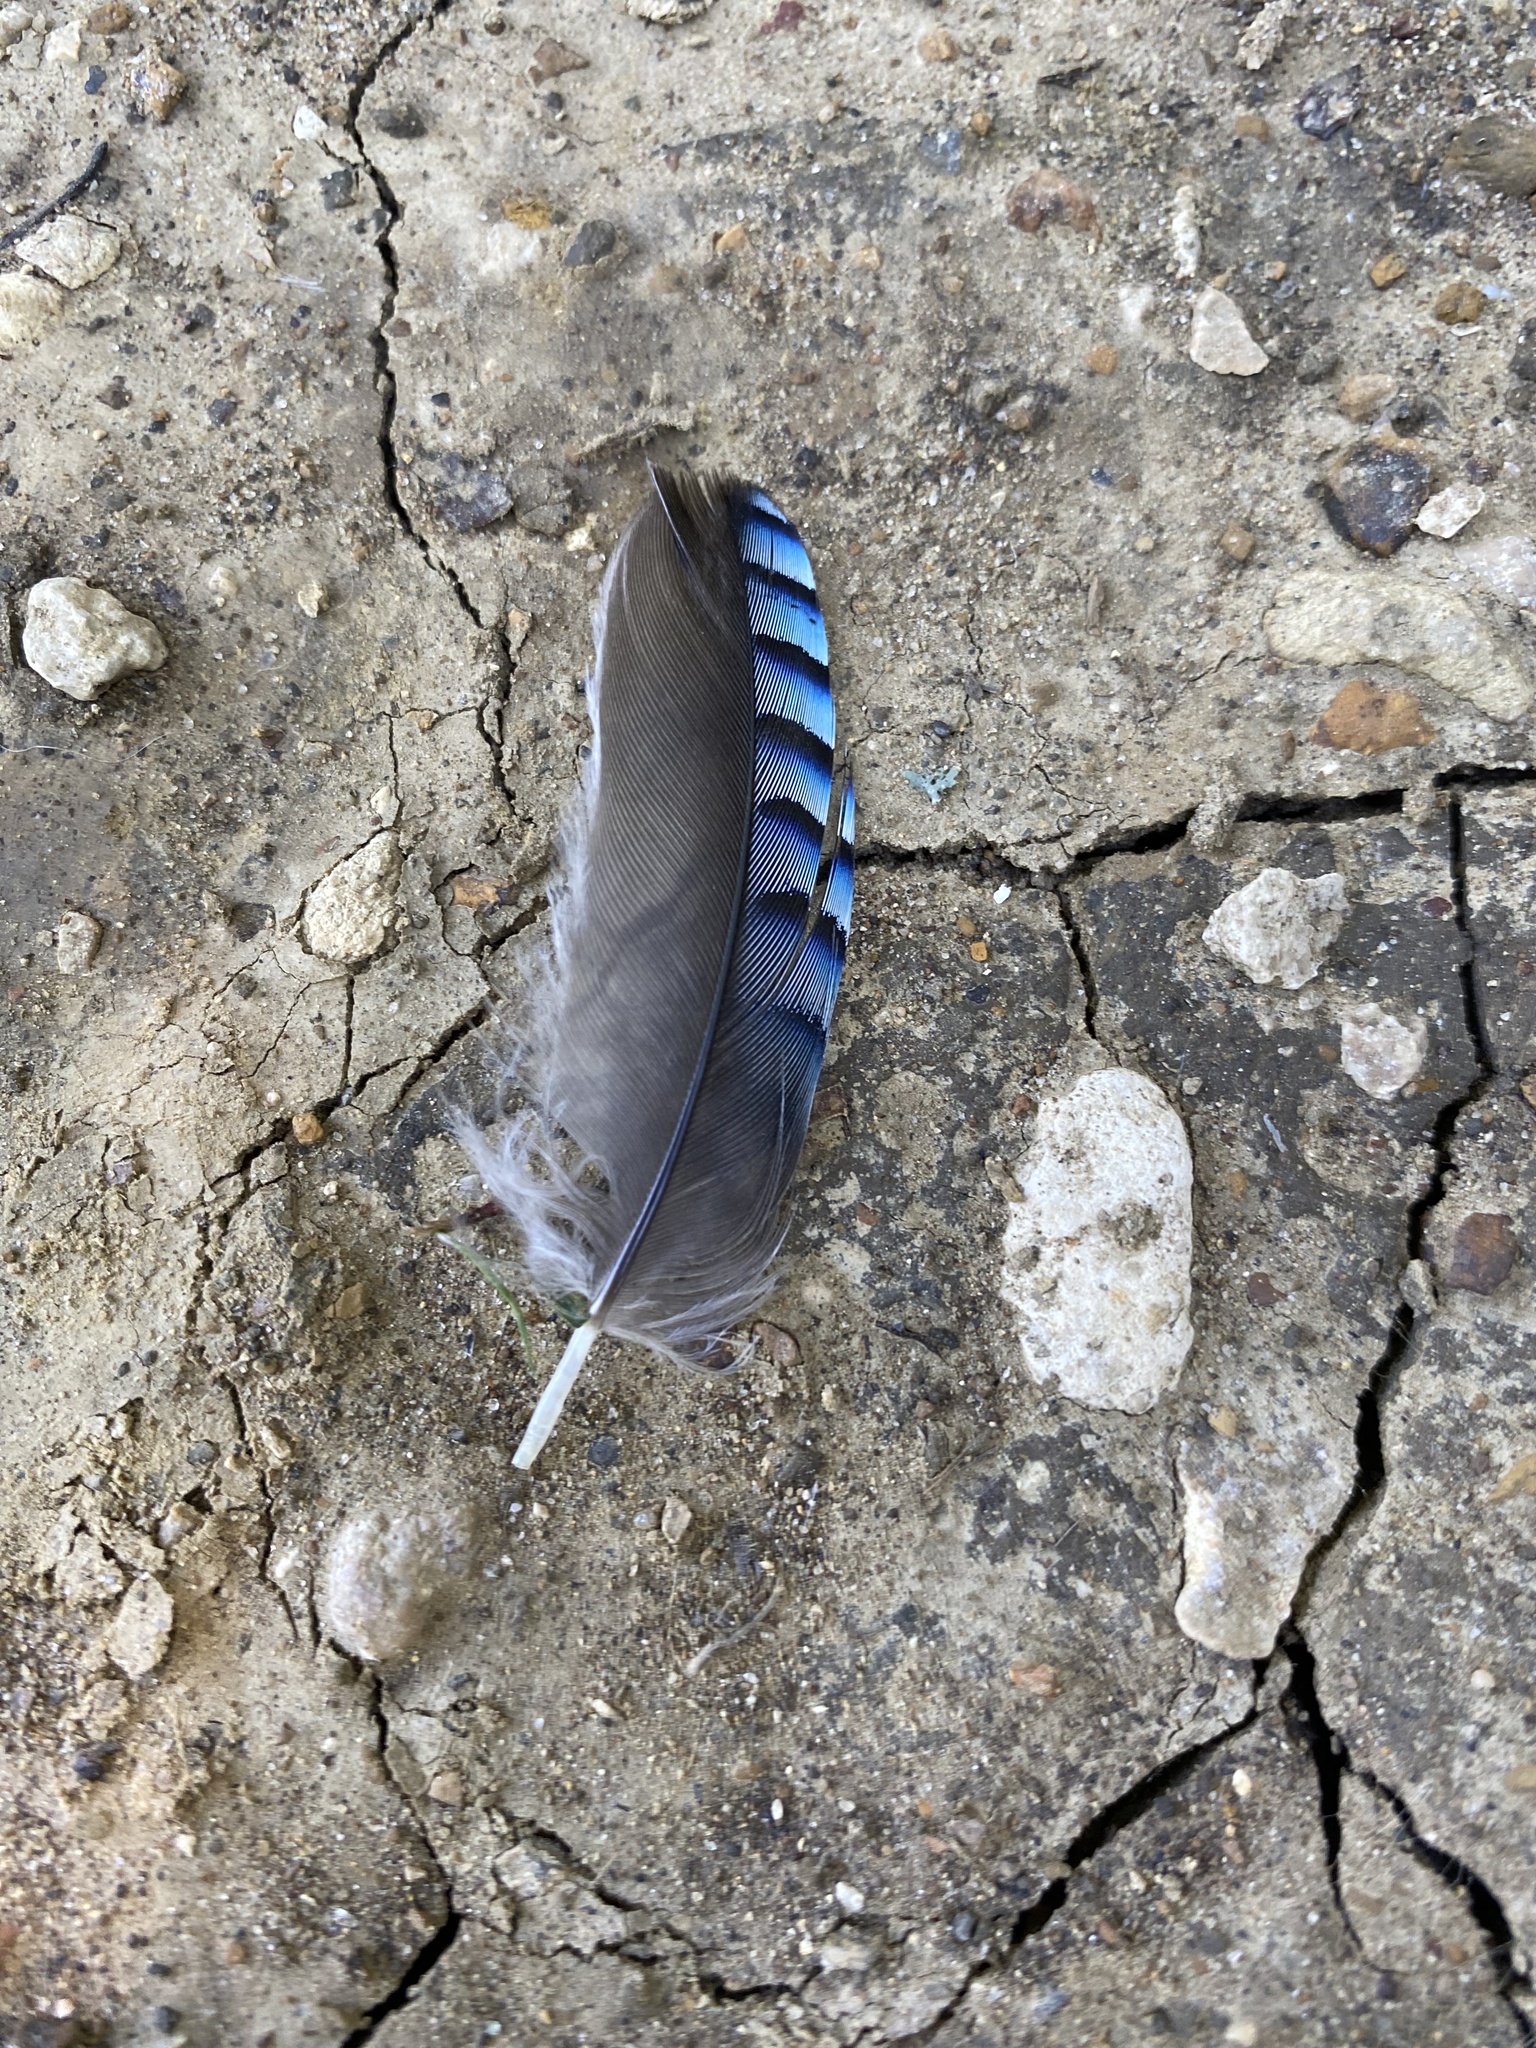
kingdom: Animalia
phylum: Chordata
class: Aves
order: Passeriformes
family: Corvidae
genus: Garrulus
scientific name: Garrulus glandarius
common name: Eurasian jay
